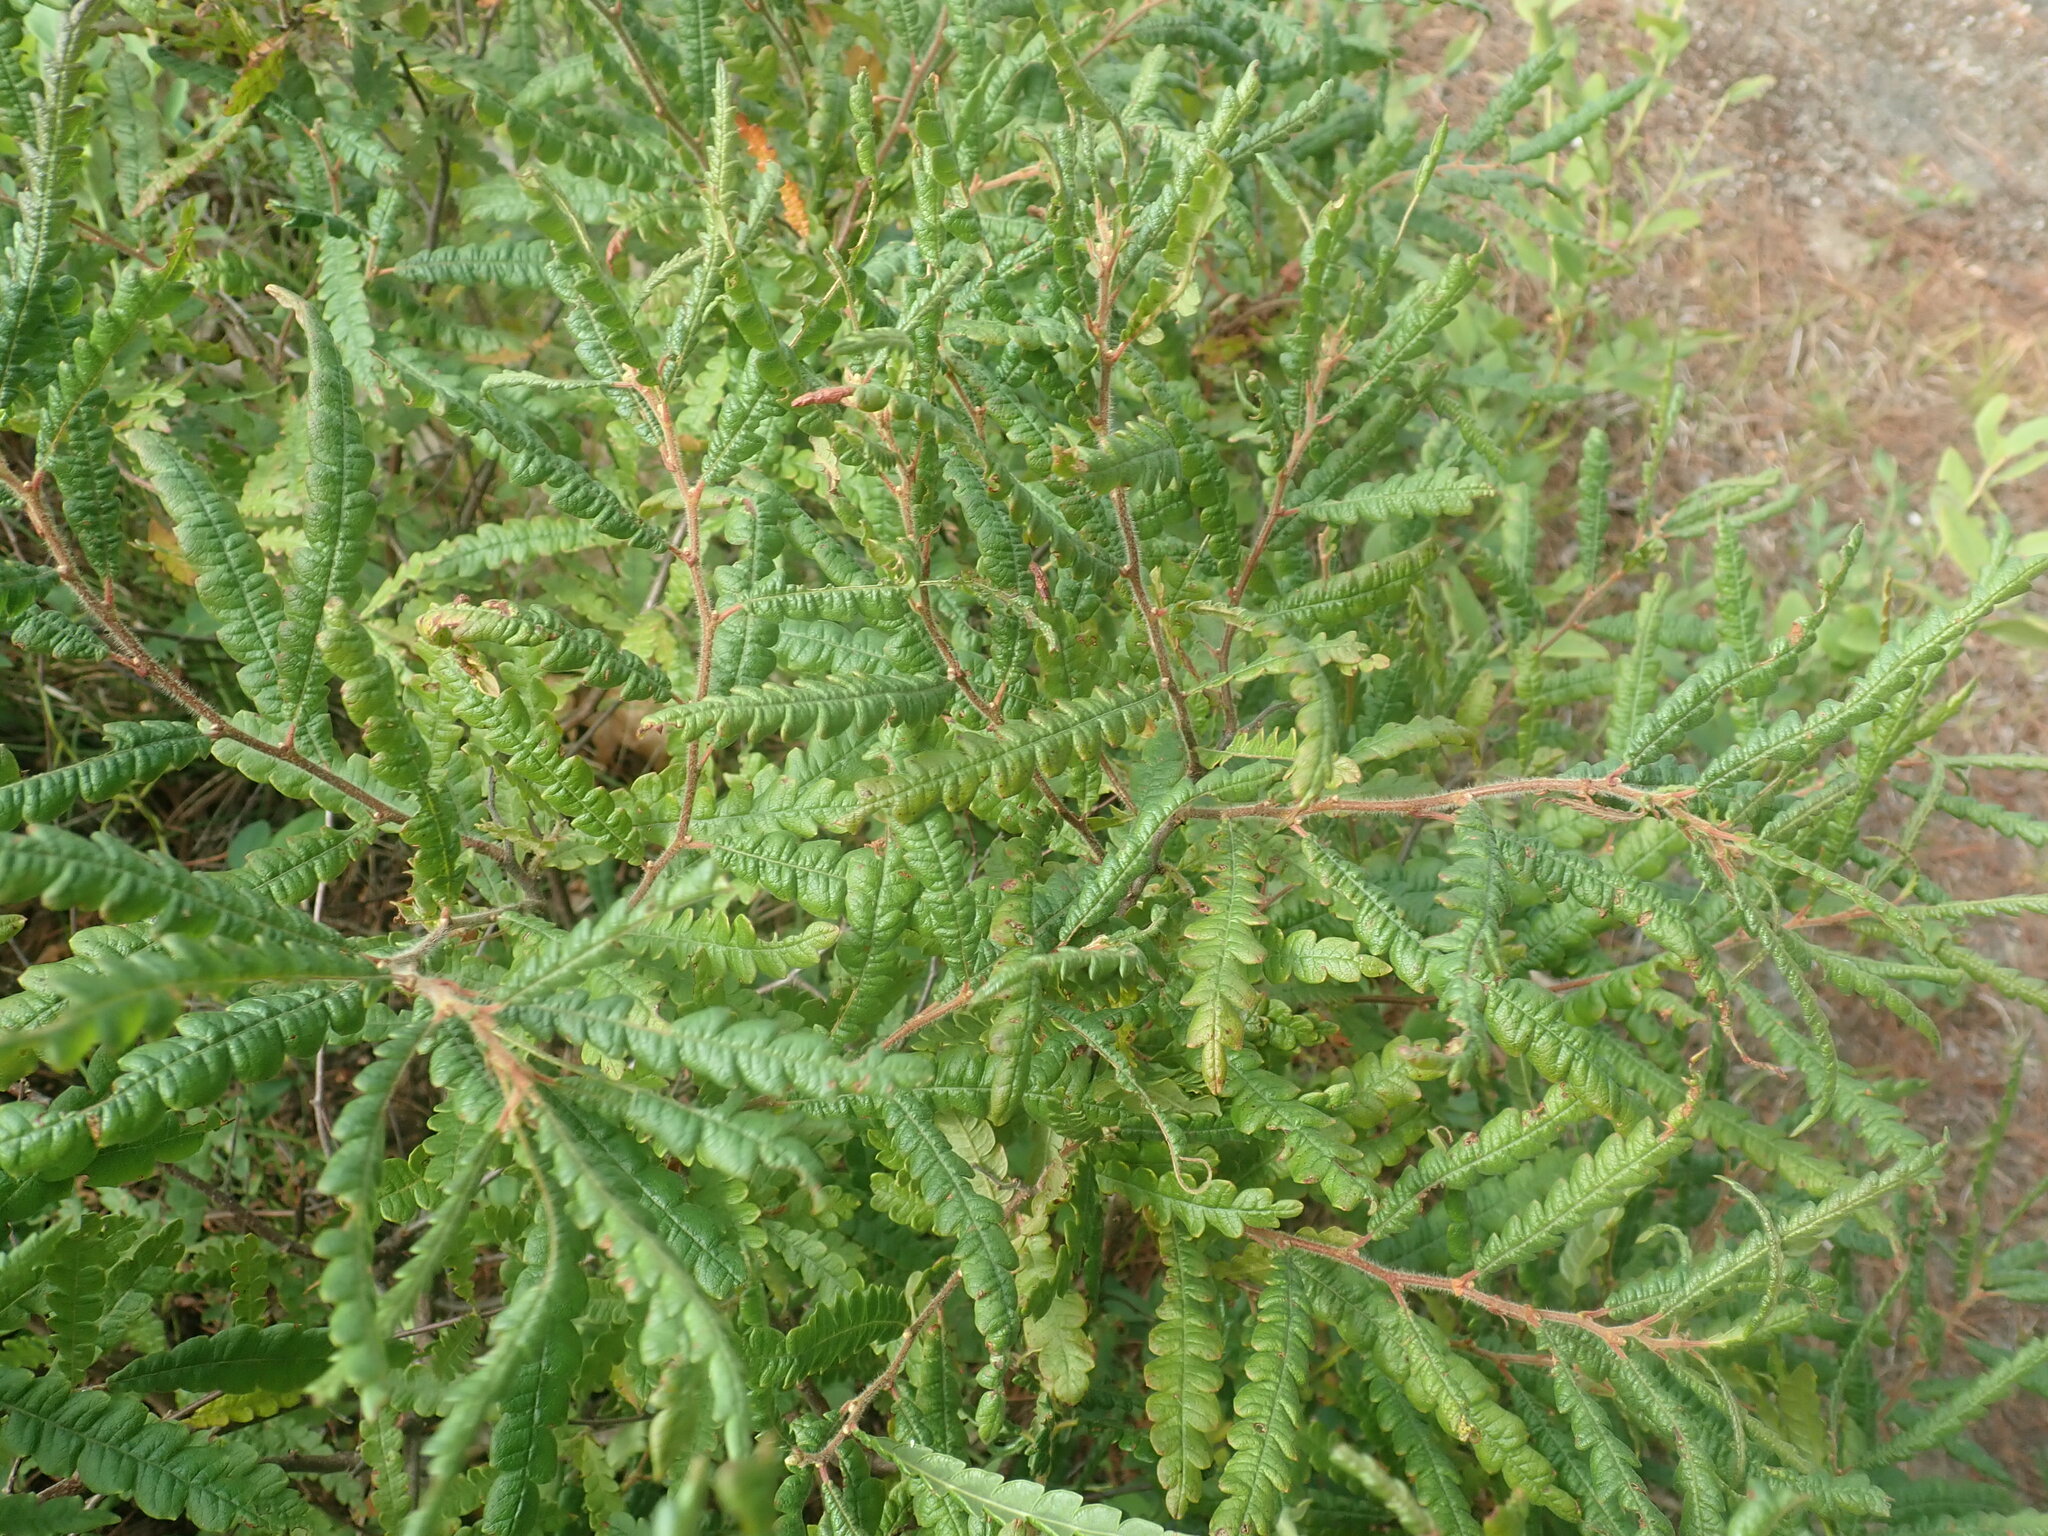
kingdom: Plantae
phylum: Tracheophyta
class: Magnoliopsida
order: Fagales
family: Myricaceae
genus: Comptonia
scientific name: Comptonia peregrina
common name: Sweet-fern
